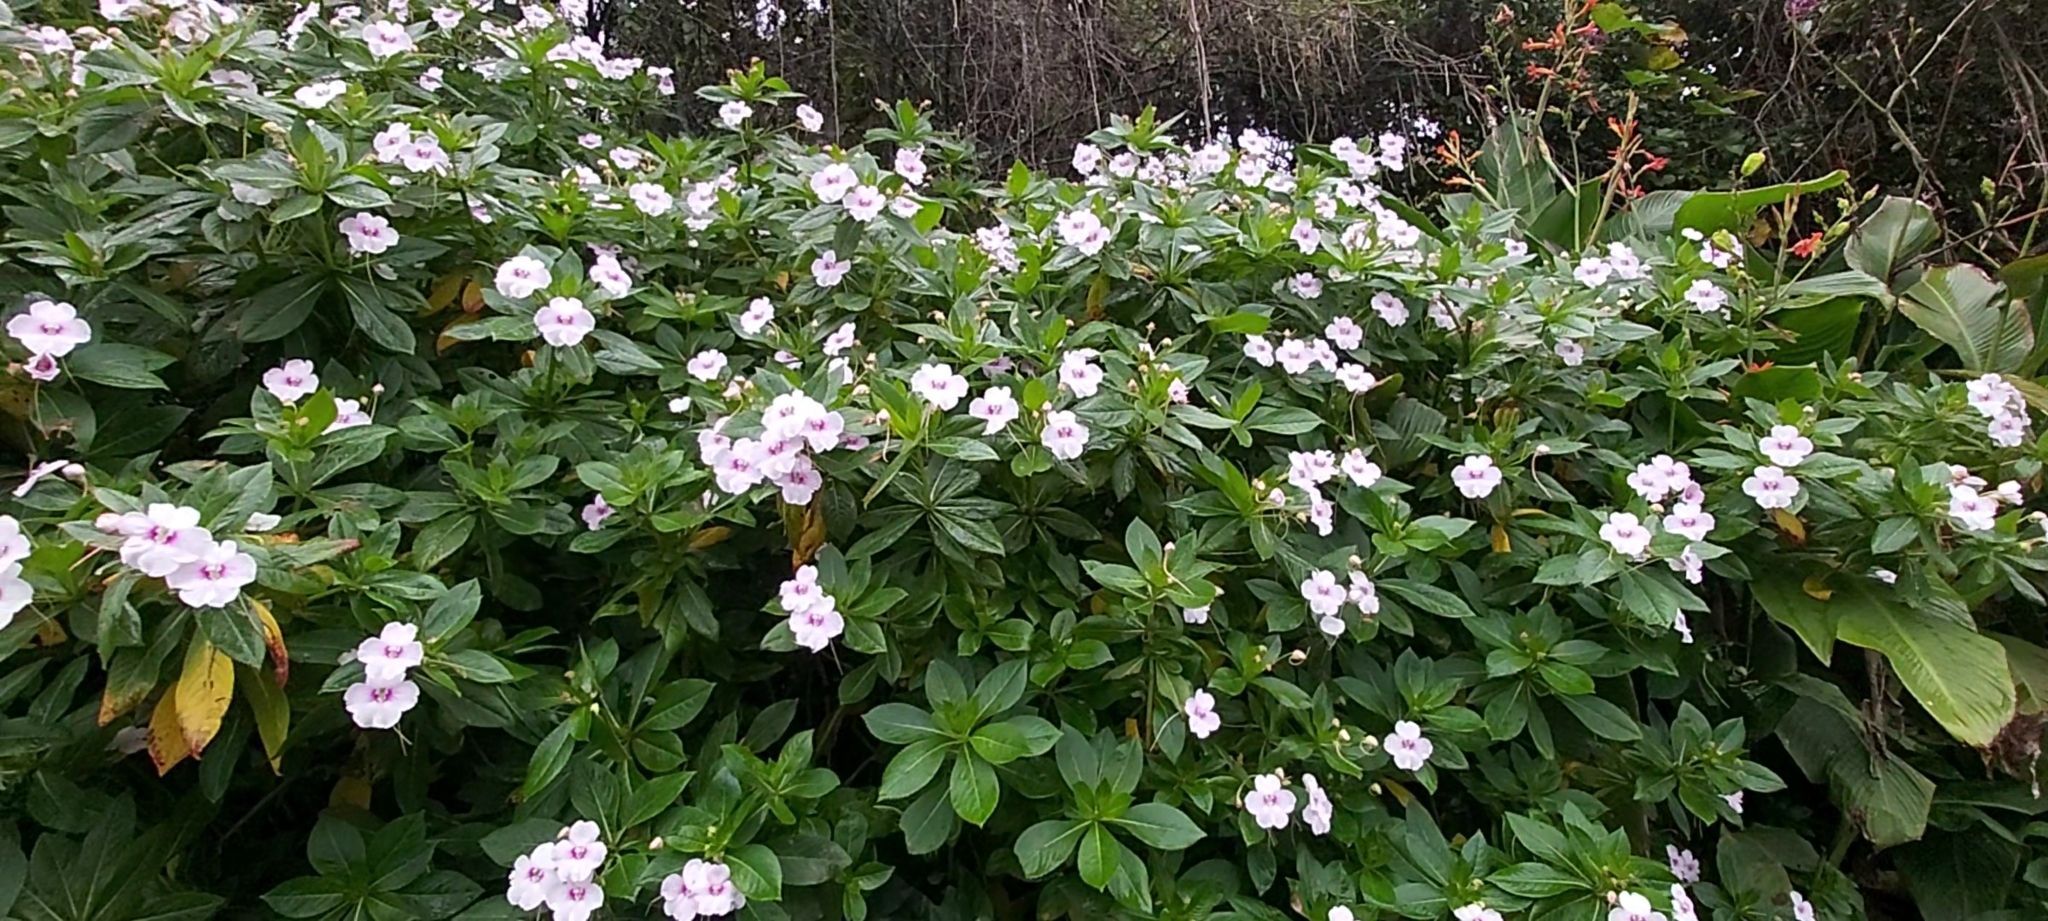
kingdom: Plantae
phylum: Tracheophyta
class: Magnoliopsida
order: Ericales
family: Balsaminaceae
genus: Impatiens
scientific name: Impatiens sodenii
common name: Oliver's touch-me-not
